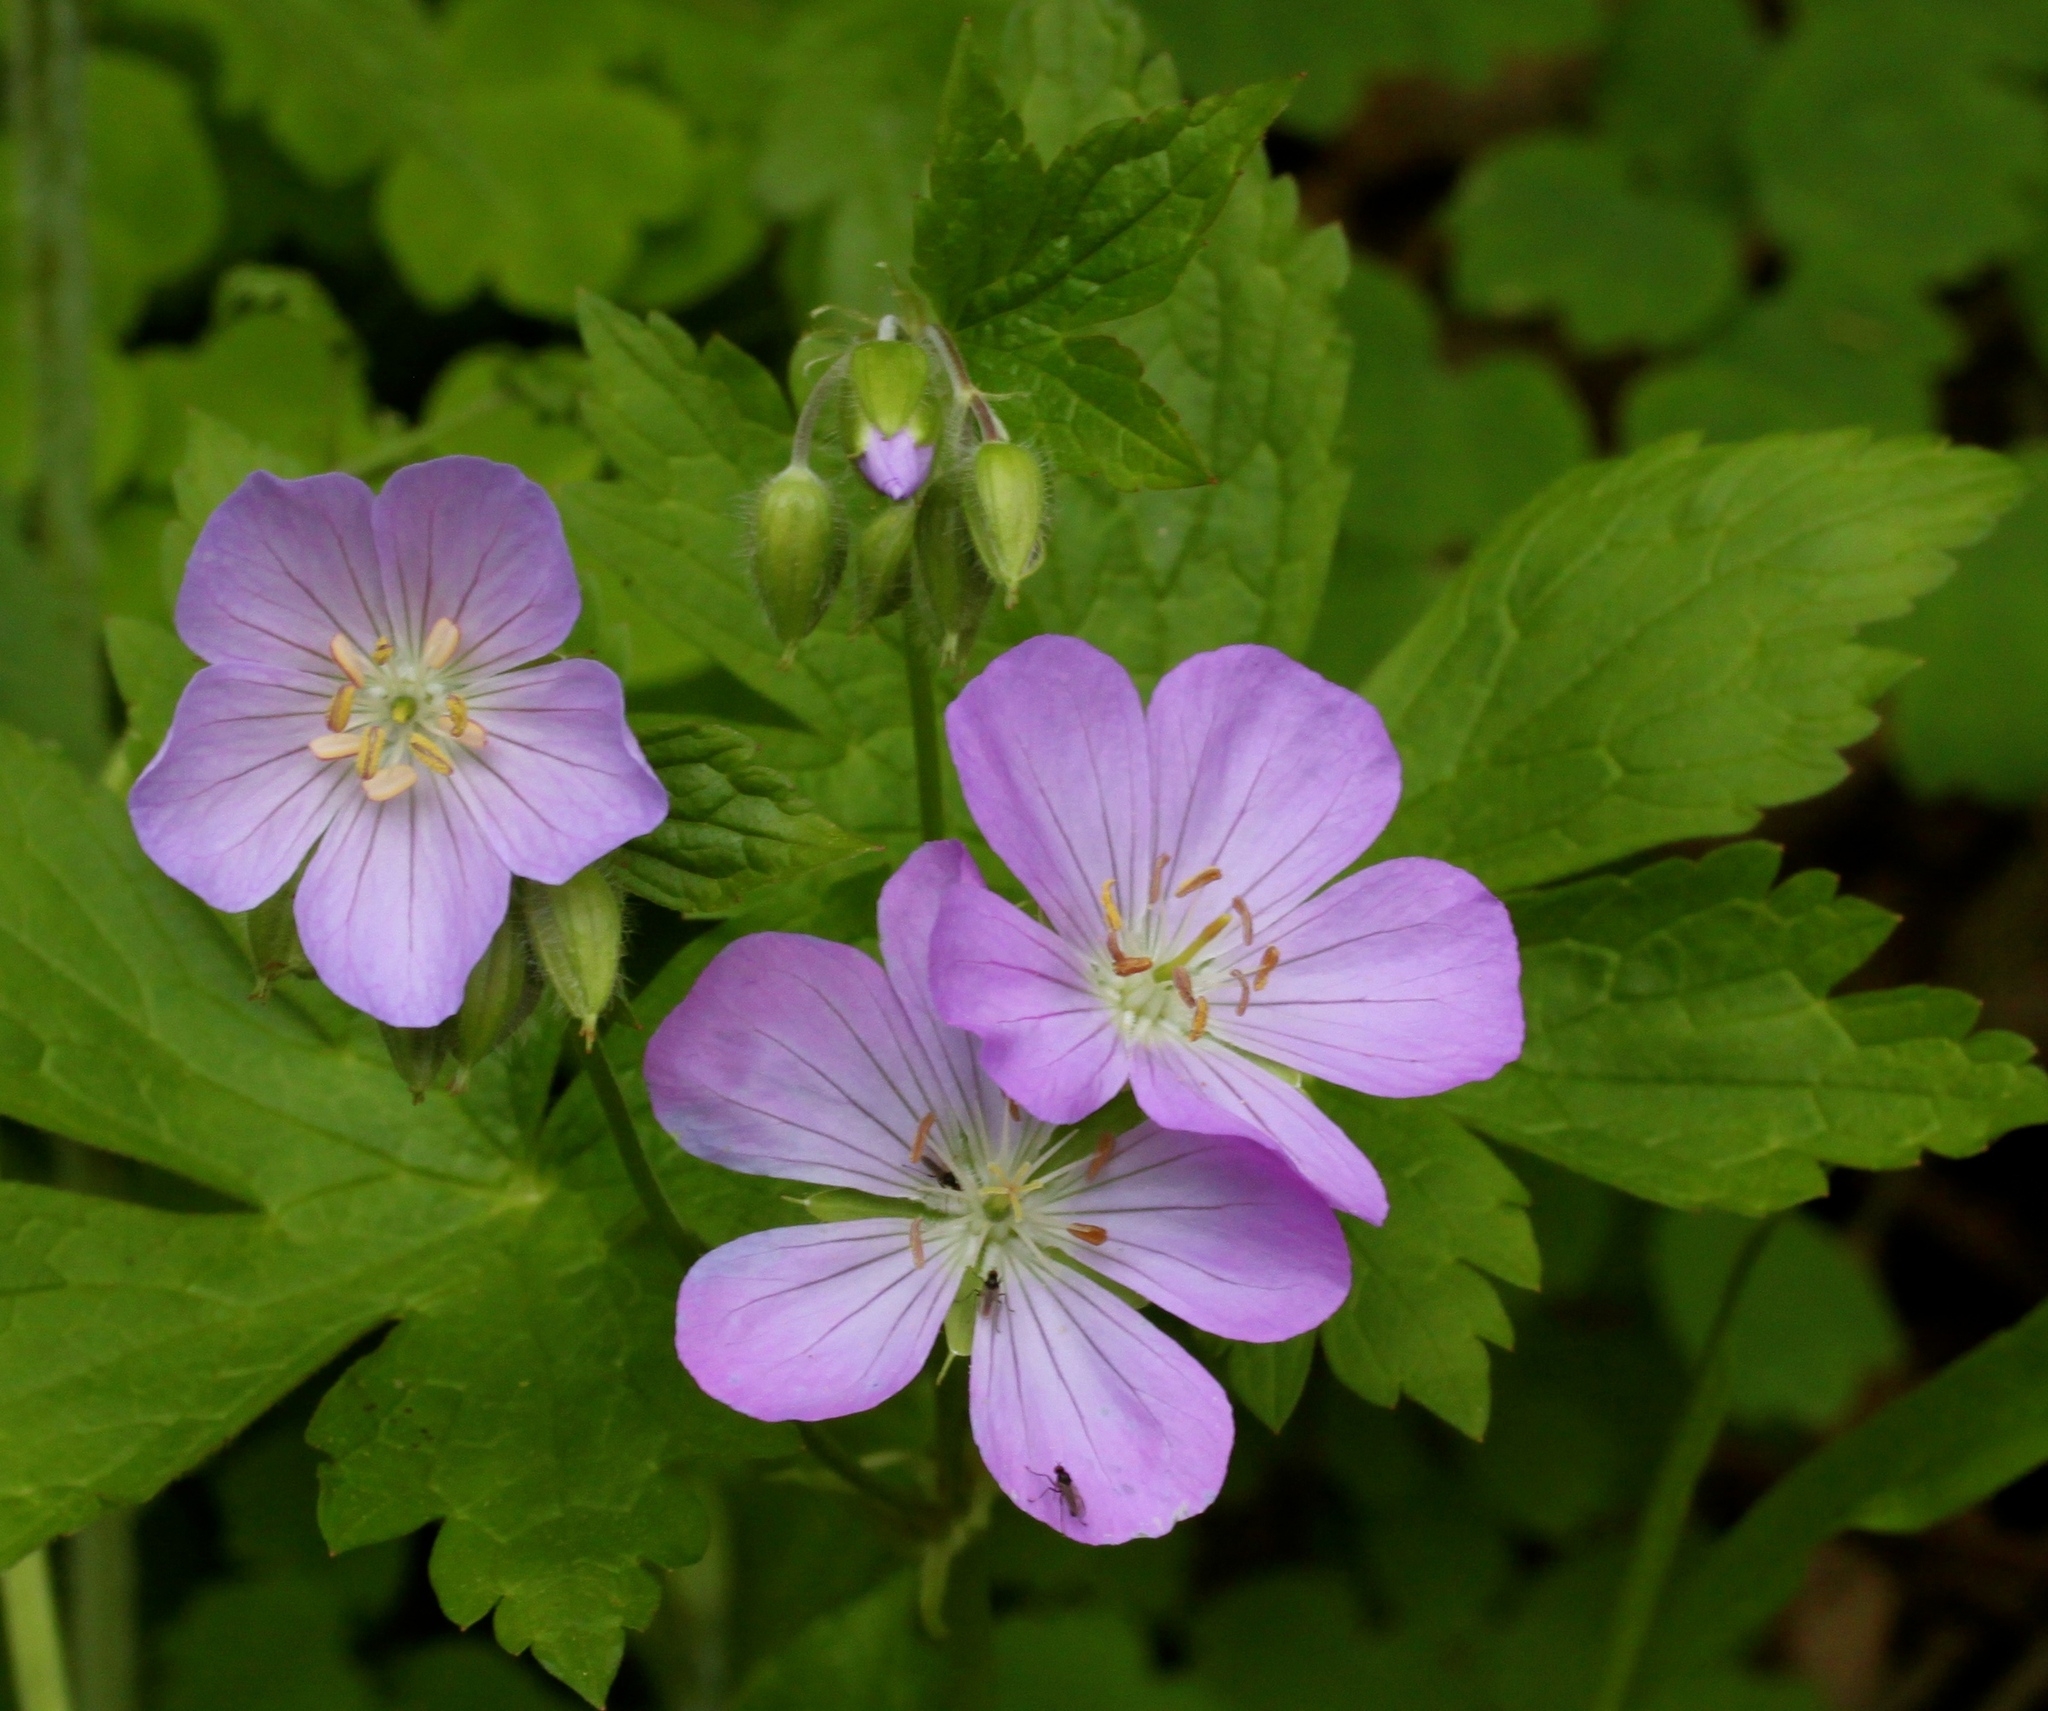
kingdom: Plantae
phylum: Tracheophyta
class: Magnoliopsida
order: Geraniales
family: Geraniaceae
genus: Geranium
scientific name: Geranium maculatum
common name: Spotted geranium
